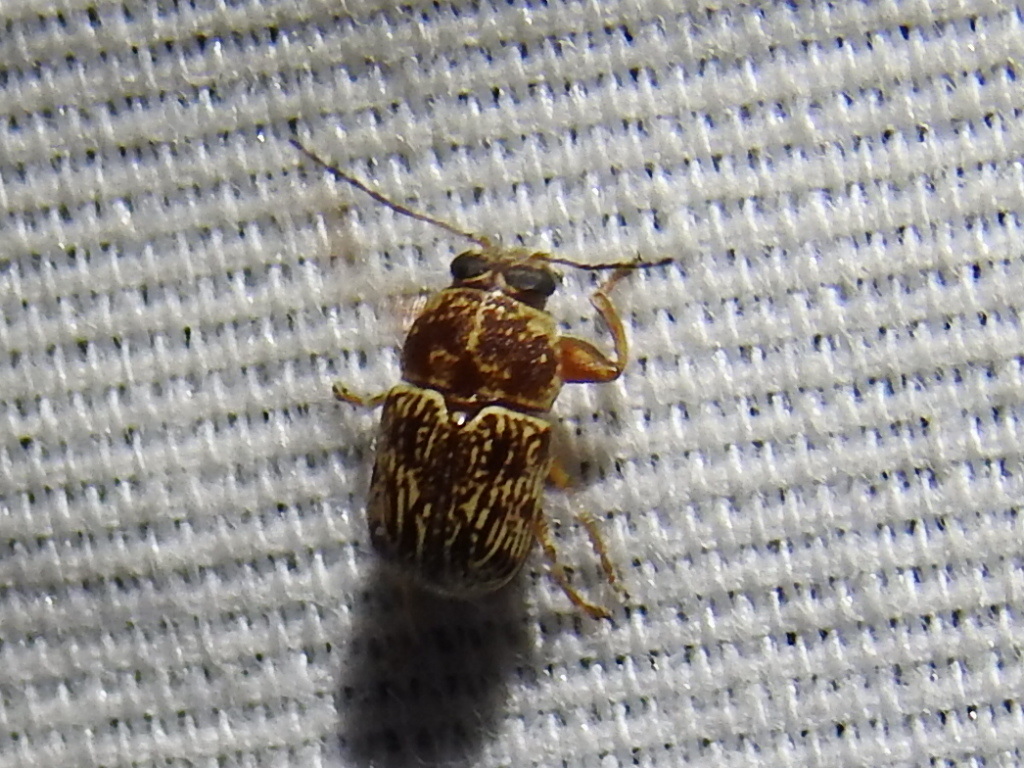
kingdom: Animalia
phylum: Arthropoda
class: Insecta
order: Coleoptera
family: Chrysomelidae
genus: Pachybrachis
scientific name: Pachybrachis
